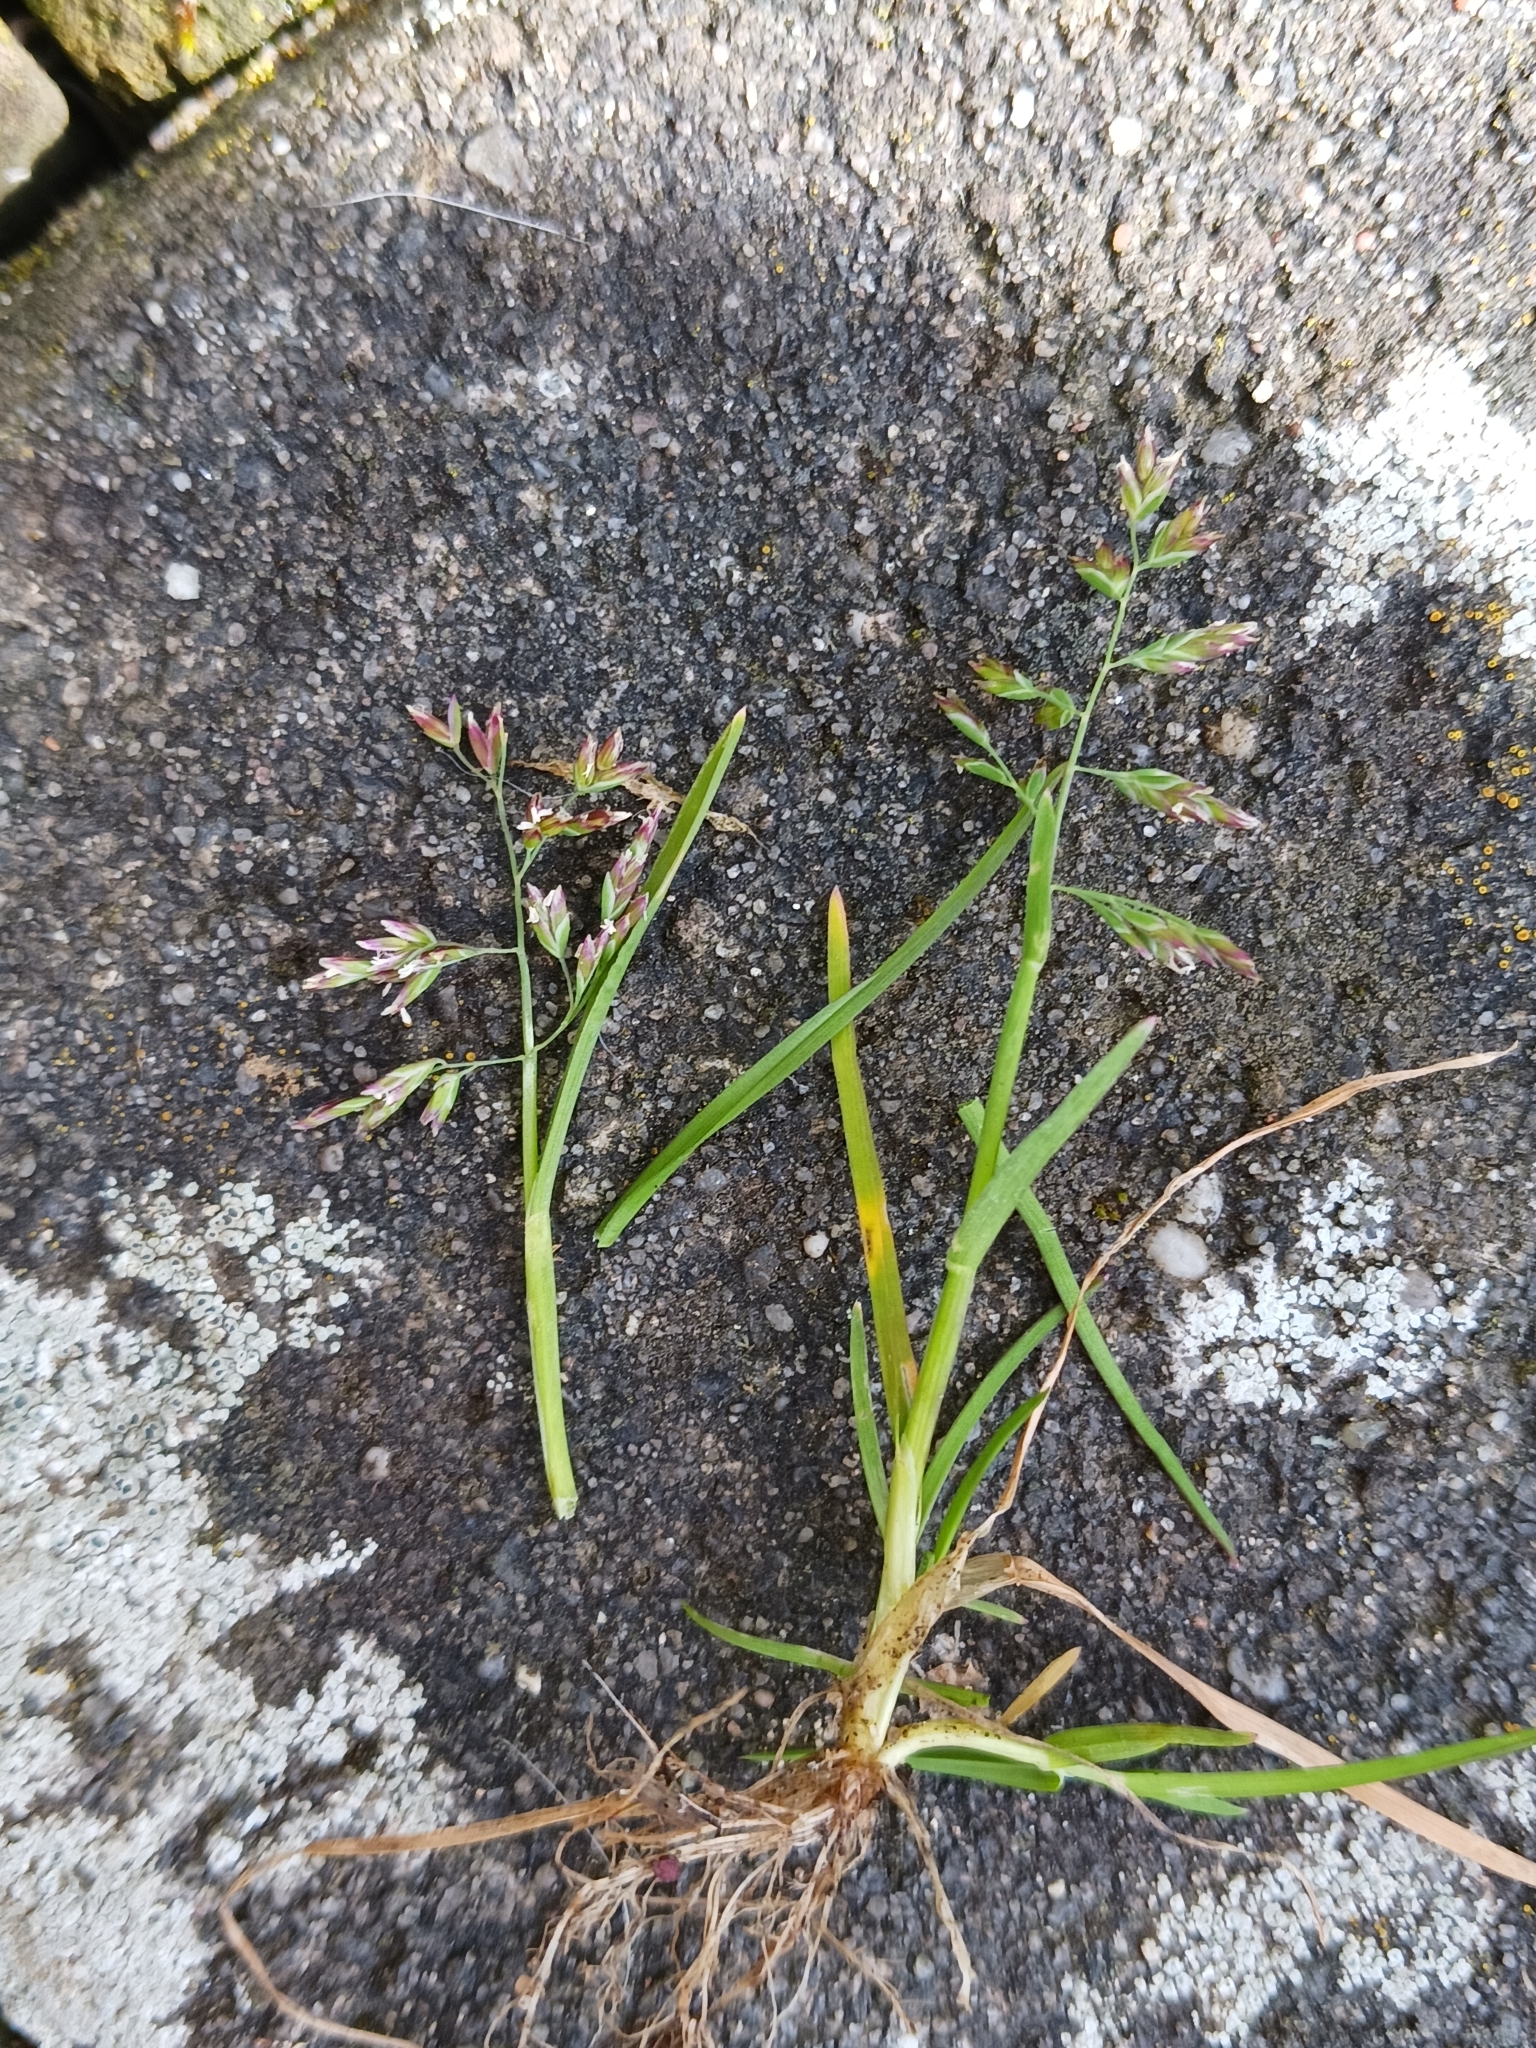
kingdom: Plantae
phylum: Tracheophyta
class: Liliopsida
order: Poales
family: Poaceae
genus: Poa
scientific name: Poa annua
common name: Annual bluegrass
